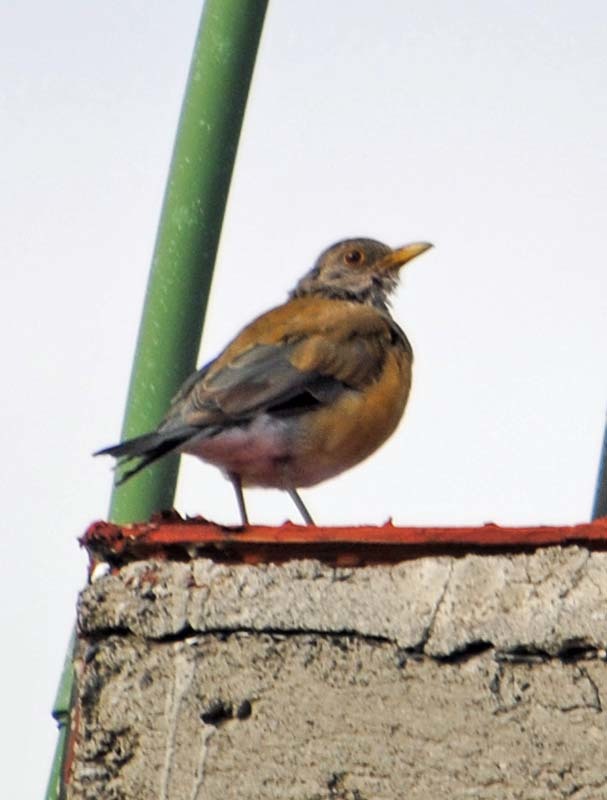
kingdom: Animalia
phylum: Chordata
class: Aves
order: Passeriformes
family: Turdidae
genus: Turdus
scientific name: Turdus rufopalliatus
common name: Rufous-backed robin
